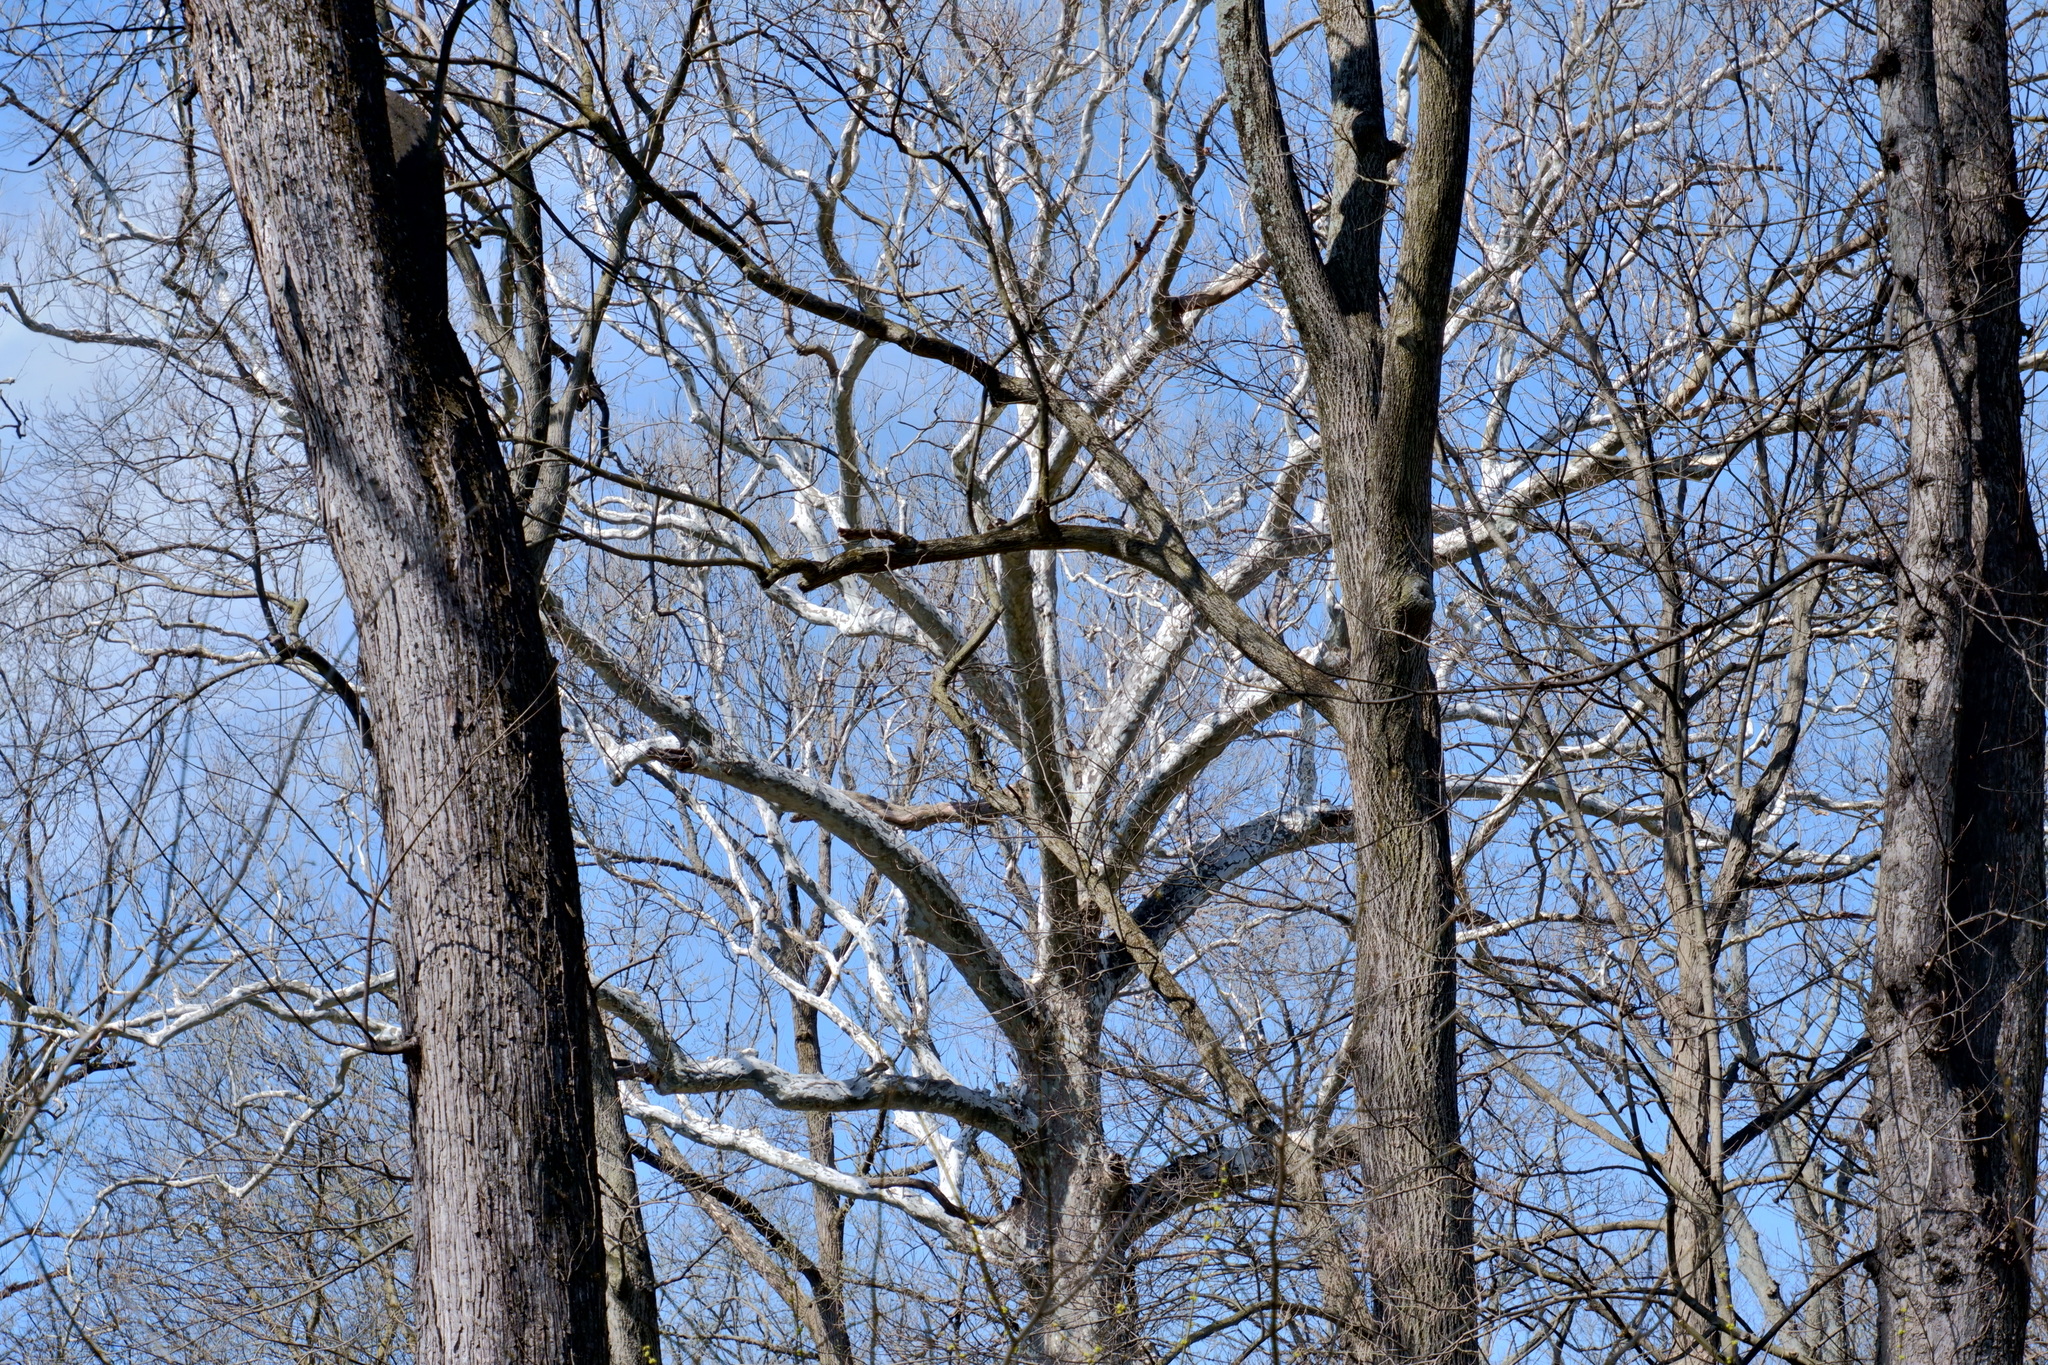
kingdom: Plantae
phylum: Tracheophyta
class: Magnoliopsida
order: Proteales
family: Platanaceae
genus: Platanus
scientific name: Platanus occidentalis
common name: American sycamore
